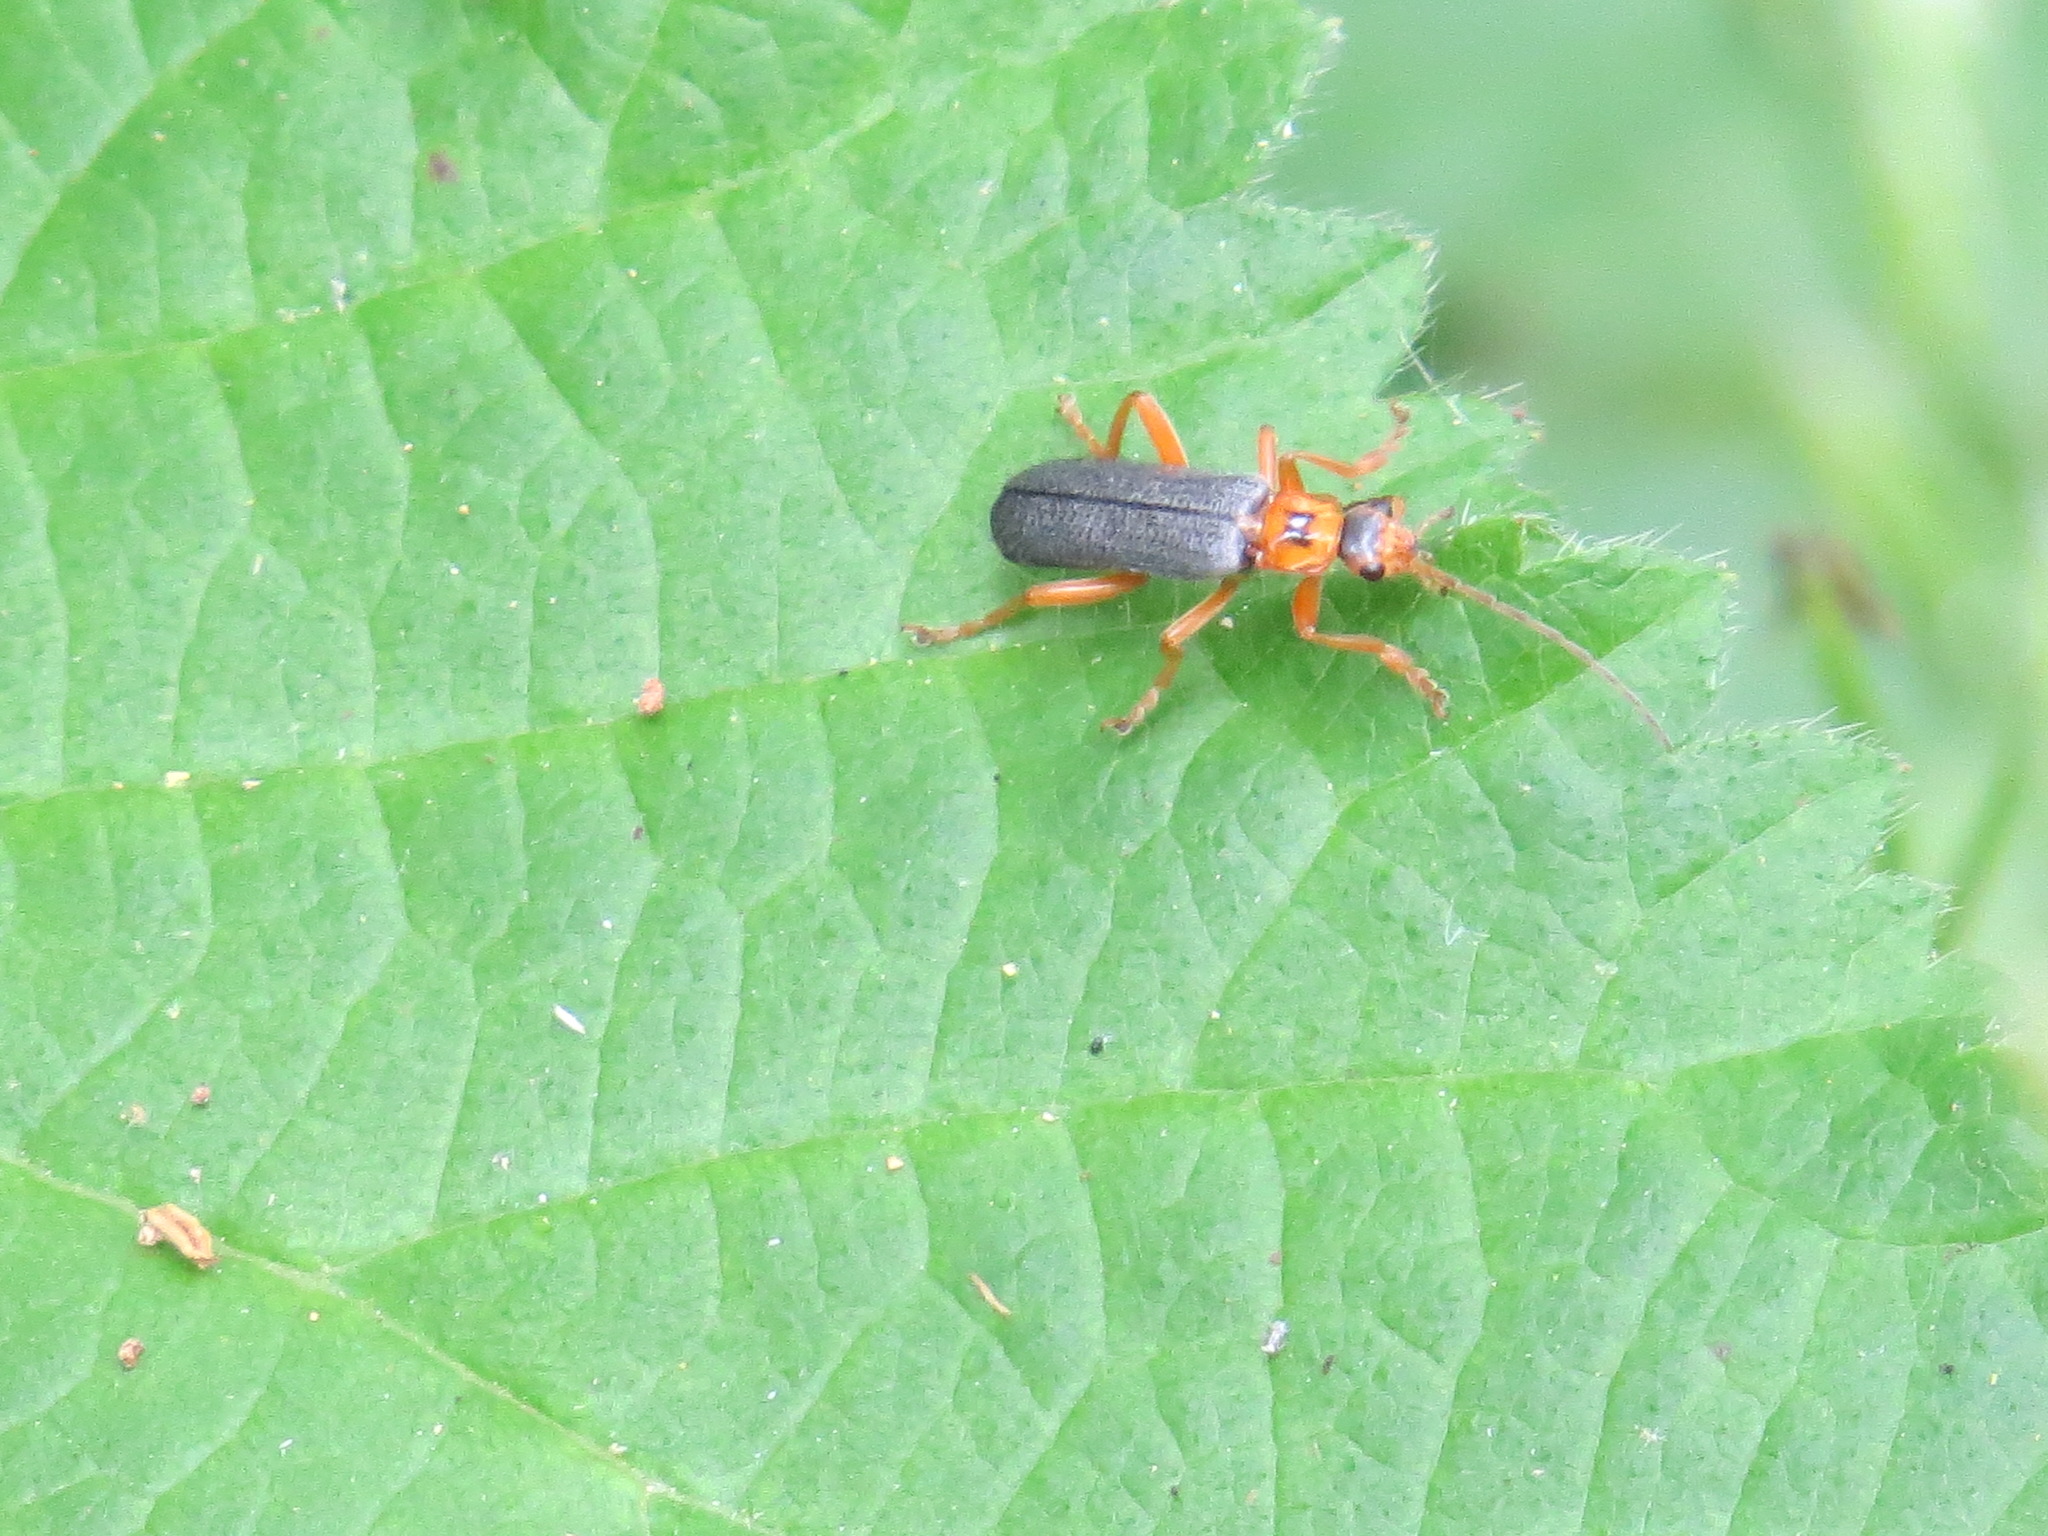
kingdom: Animalia
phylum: Arthropoda
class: Insecta
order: Coleoptera
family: Cantharidae
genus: Cultellunguis
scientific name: Cultellunguis americanus
